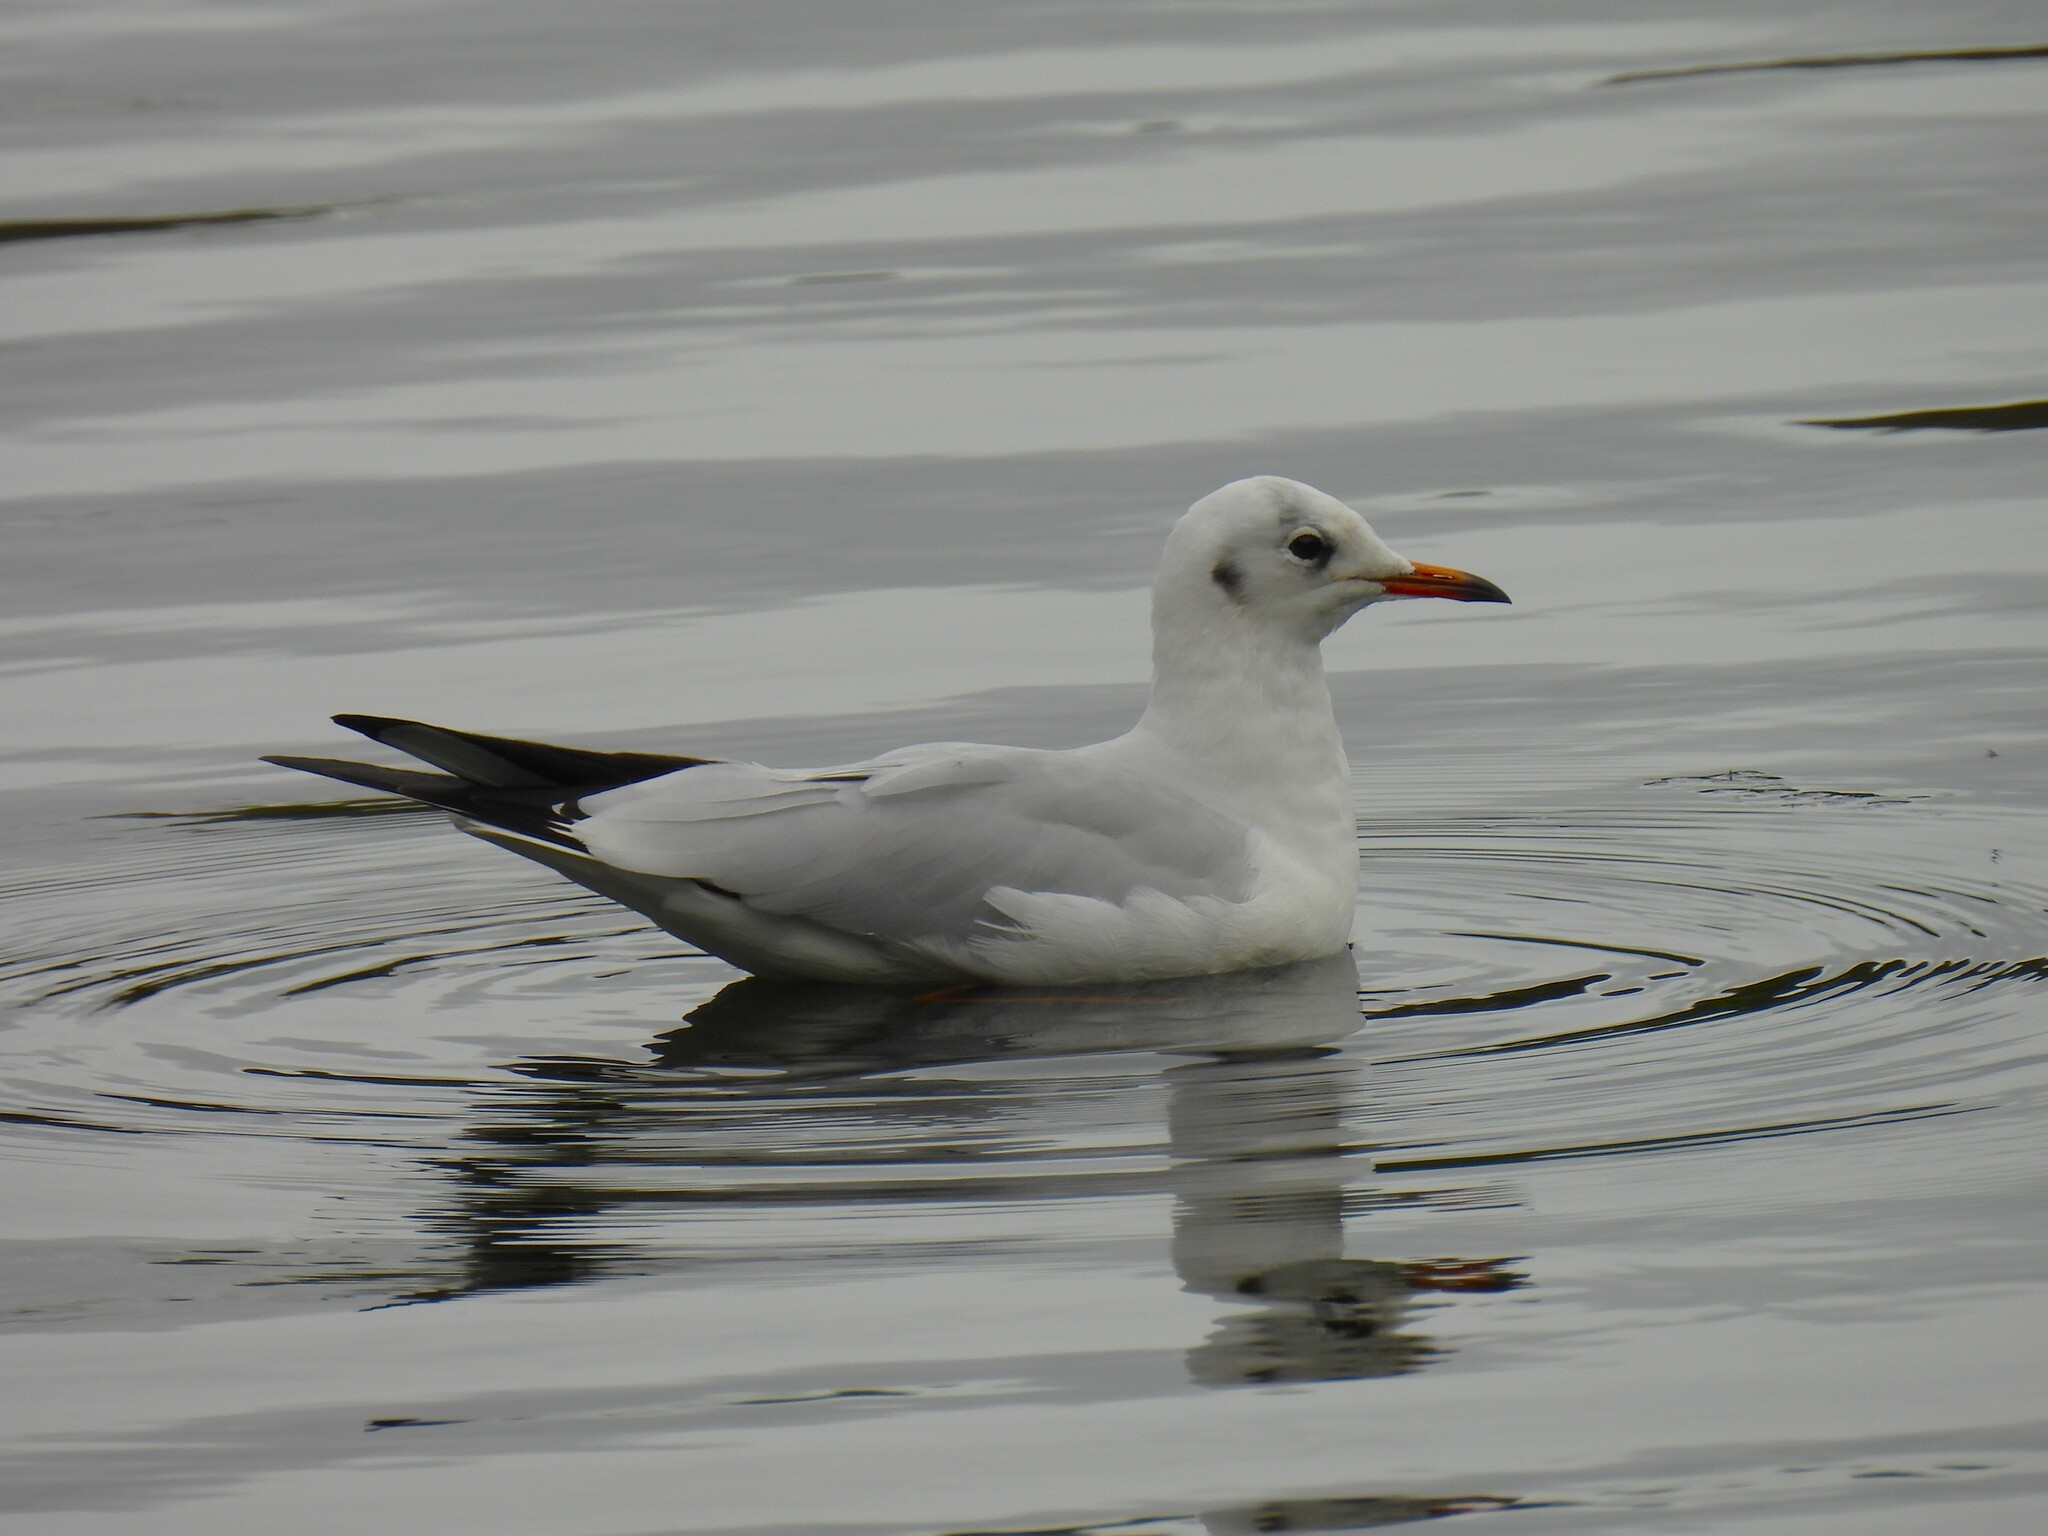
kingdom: Animalia
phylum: Chordata
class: Aves
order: Charadriiformes
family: Laridae
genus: Chroicocephalus
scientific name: Chroicocephalus ridibundus
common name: Black-headed gull
